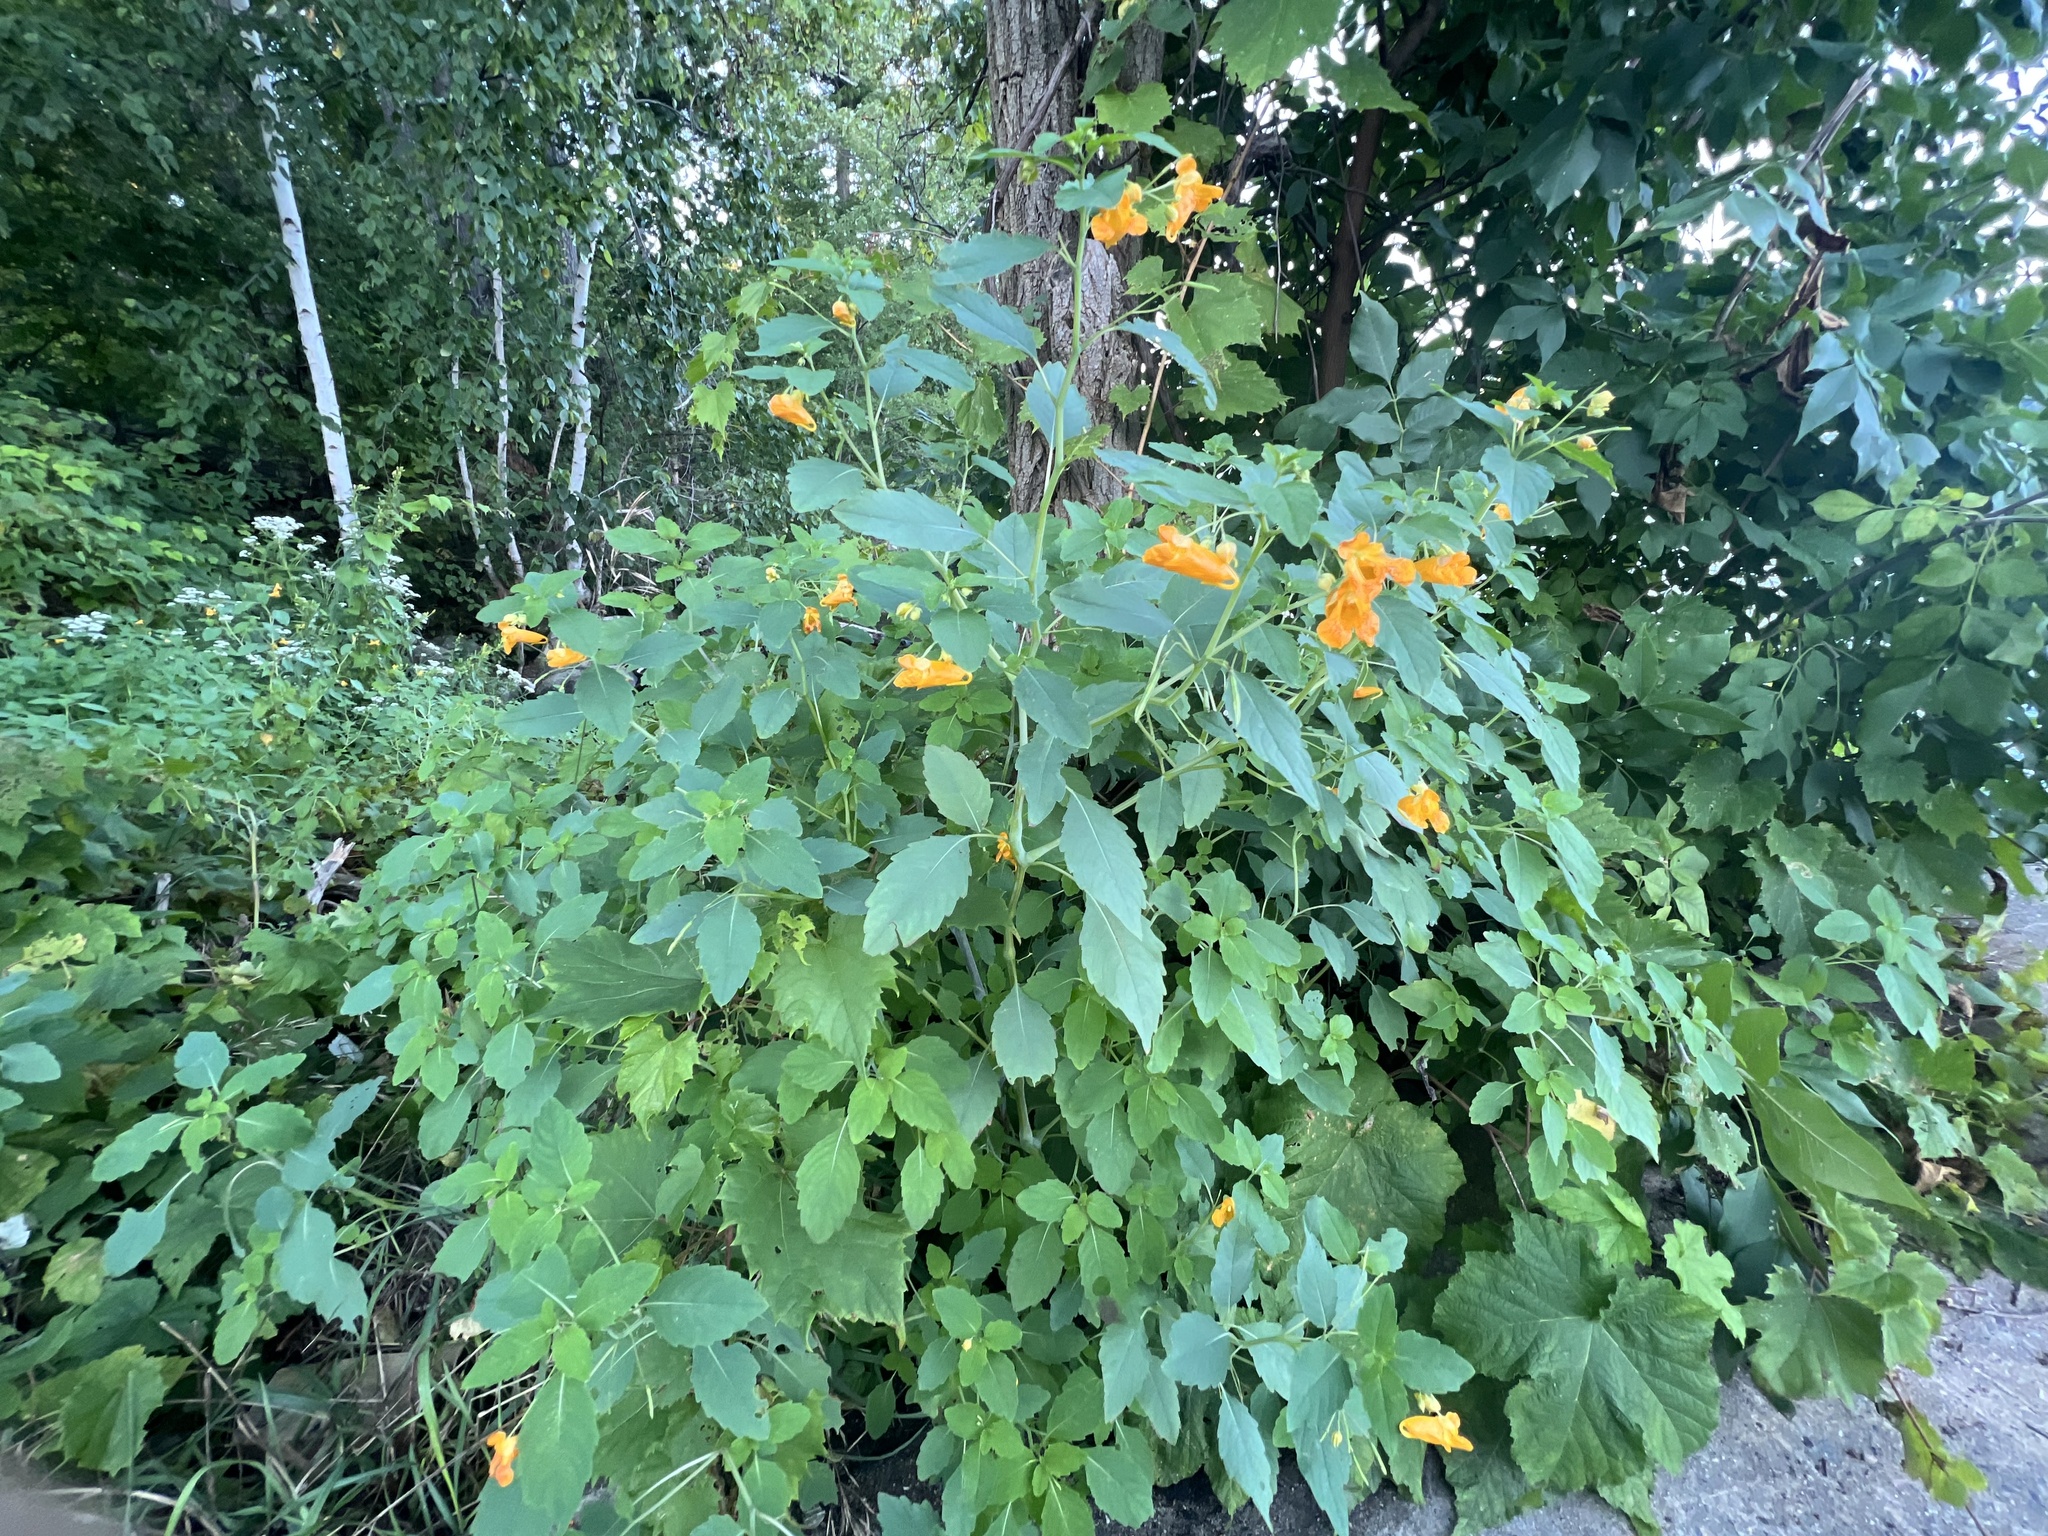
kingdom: Plantae
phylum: Tracheophyta
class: Magnoliopsida
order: Ericales
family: Balsaminaceae
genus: Impatiens
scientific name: Impatiens capensis
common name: Orange balsam
